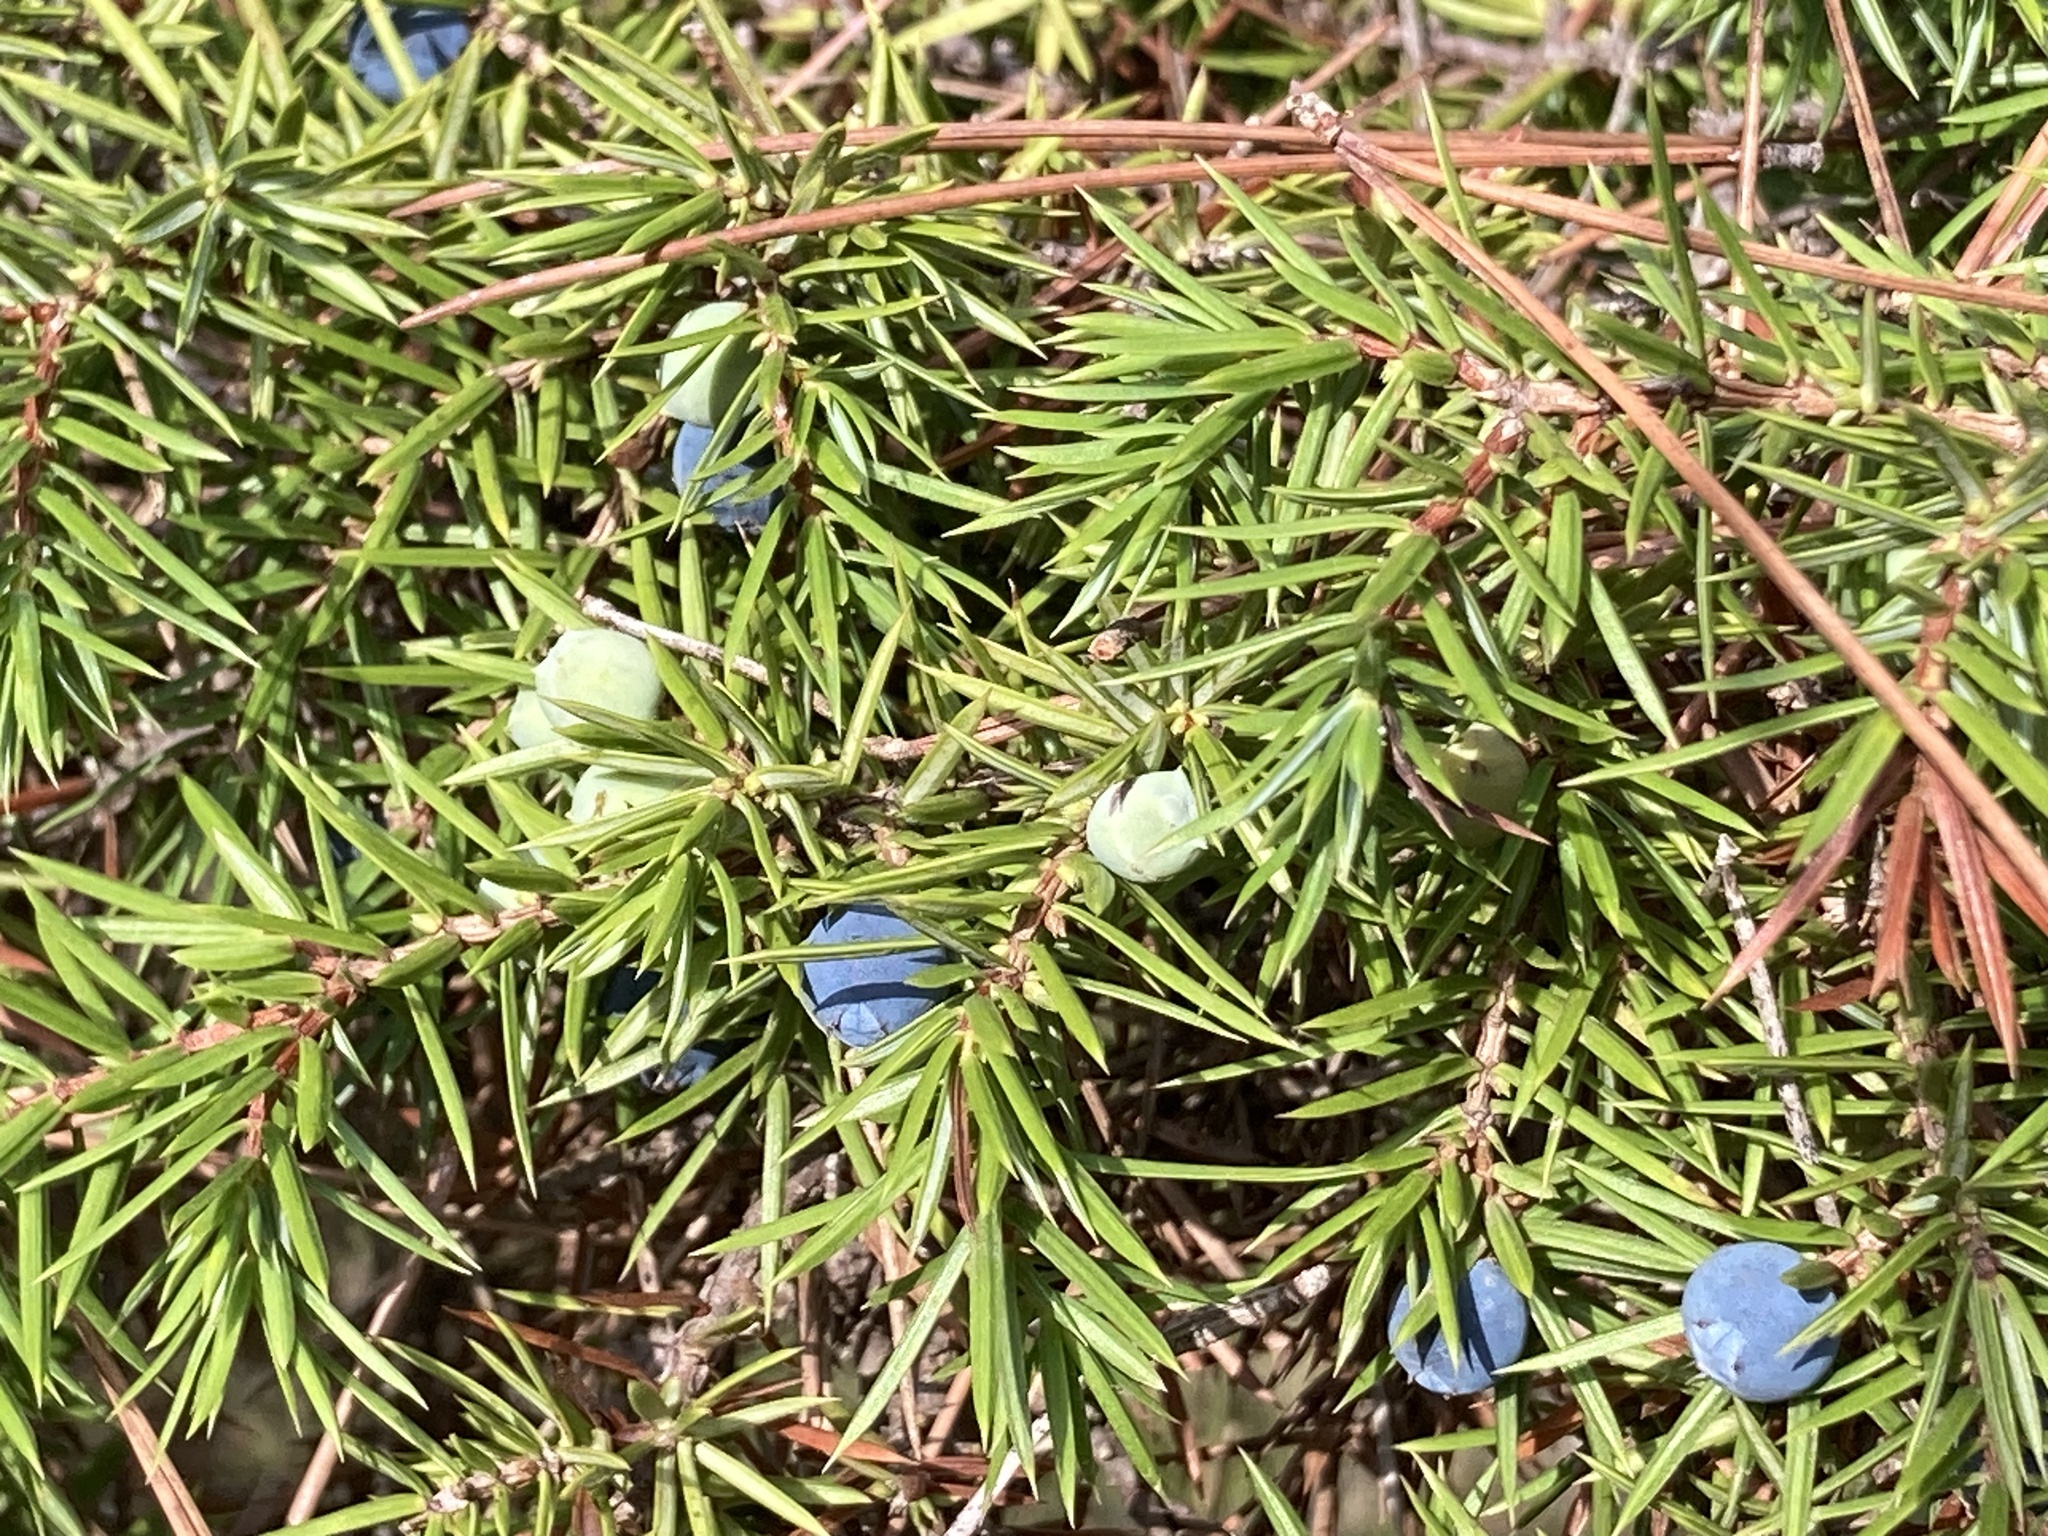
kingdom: Plantae
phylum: Tracheophyta
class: Pinopsida
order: Pinales
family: Cupressaceae
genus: Juniperus
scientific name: Juniperus communis
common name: Common juniper
